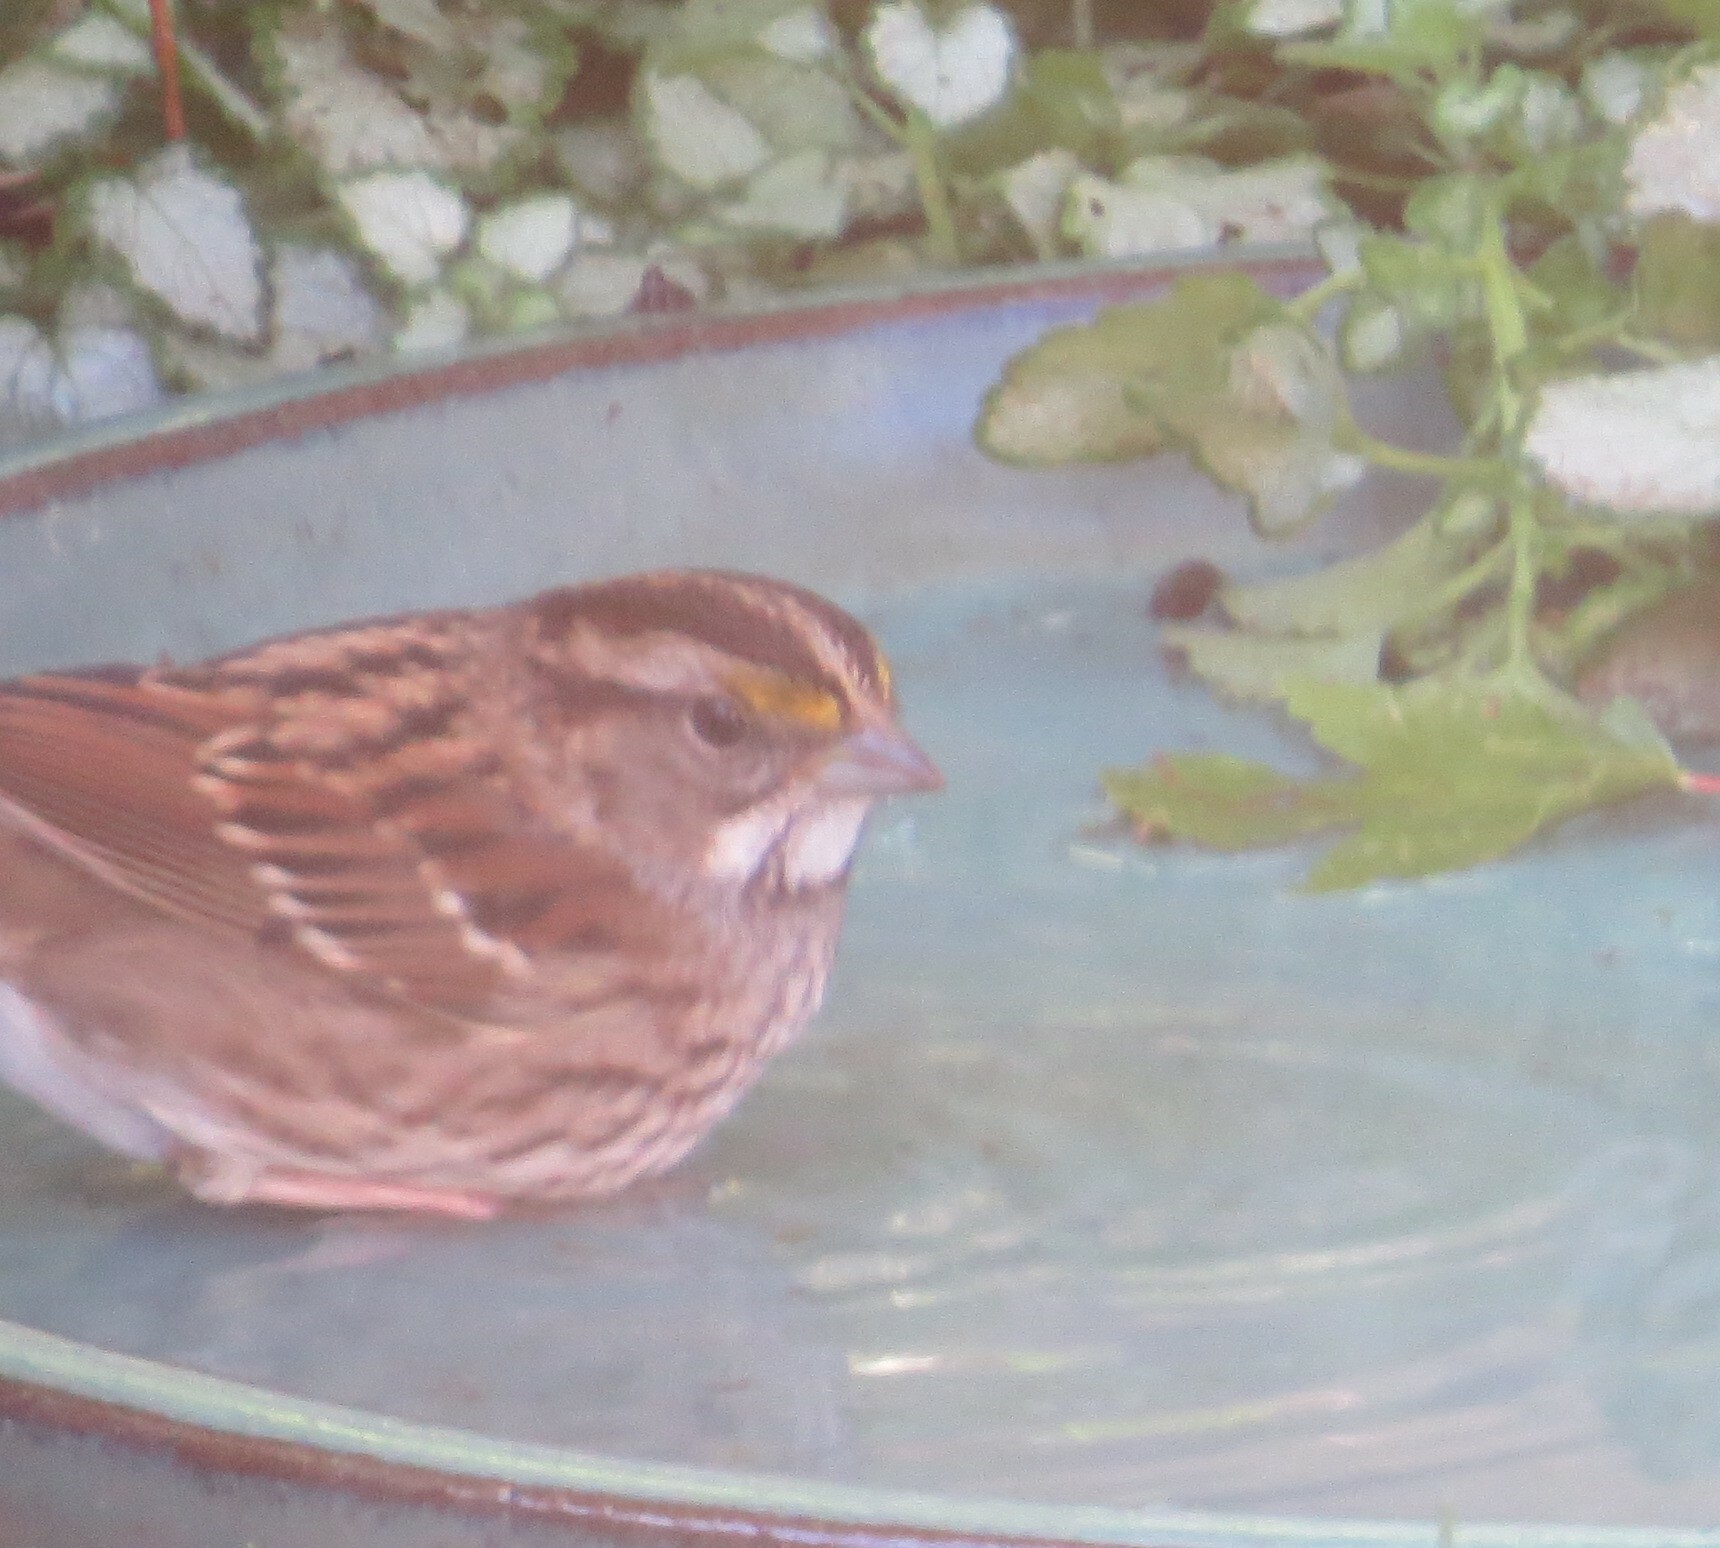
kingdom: Animalia
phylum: Chordata
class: Aves
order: Passeriformes
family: Passerellidae
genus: Zonotrichia
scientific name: Zonotrichia albicollis
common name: White-throated sparrow
